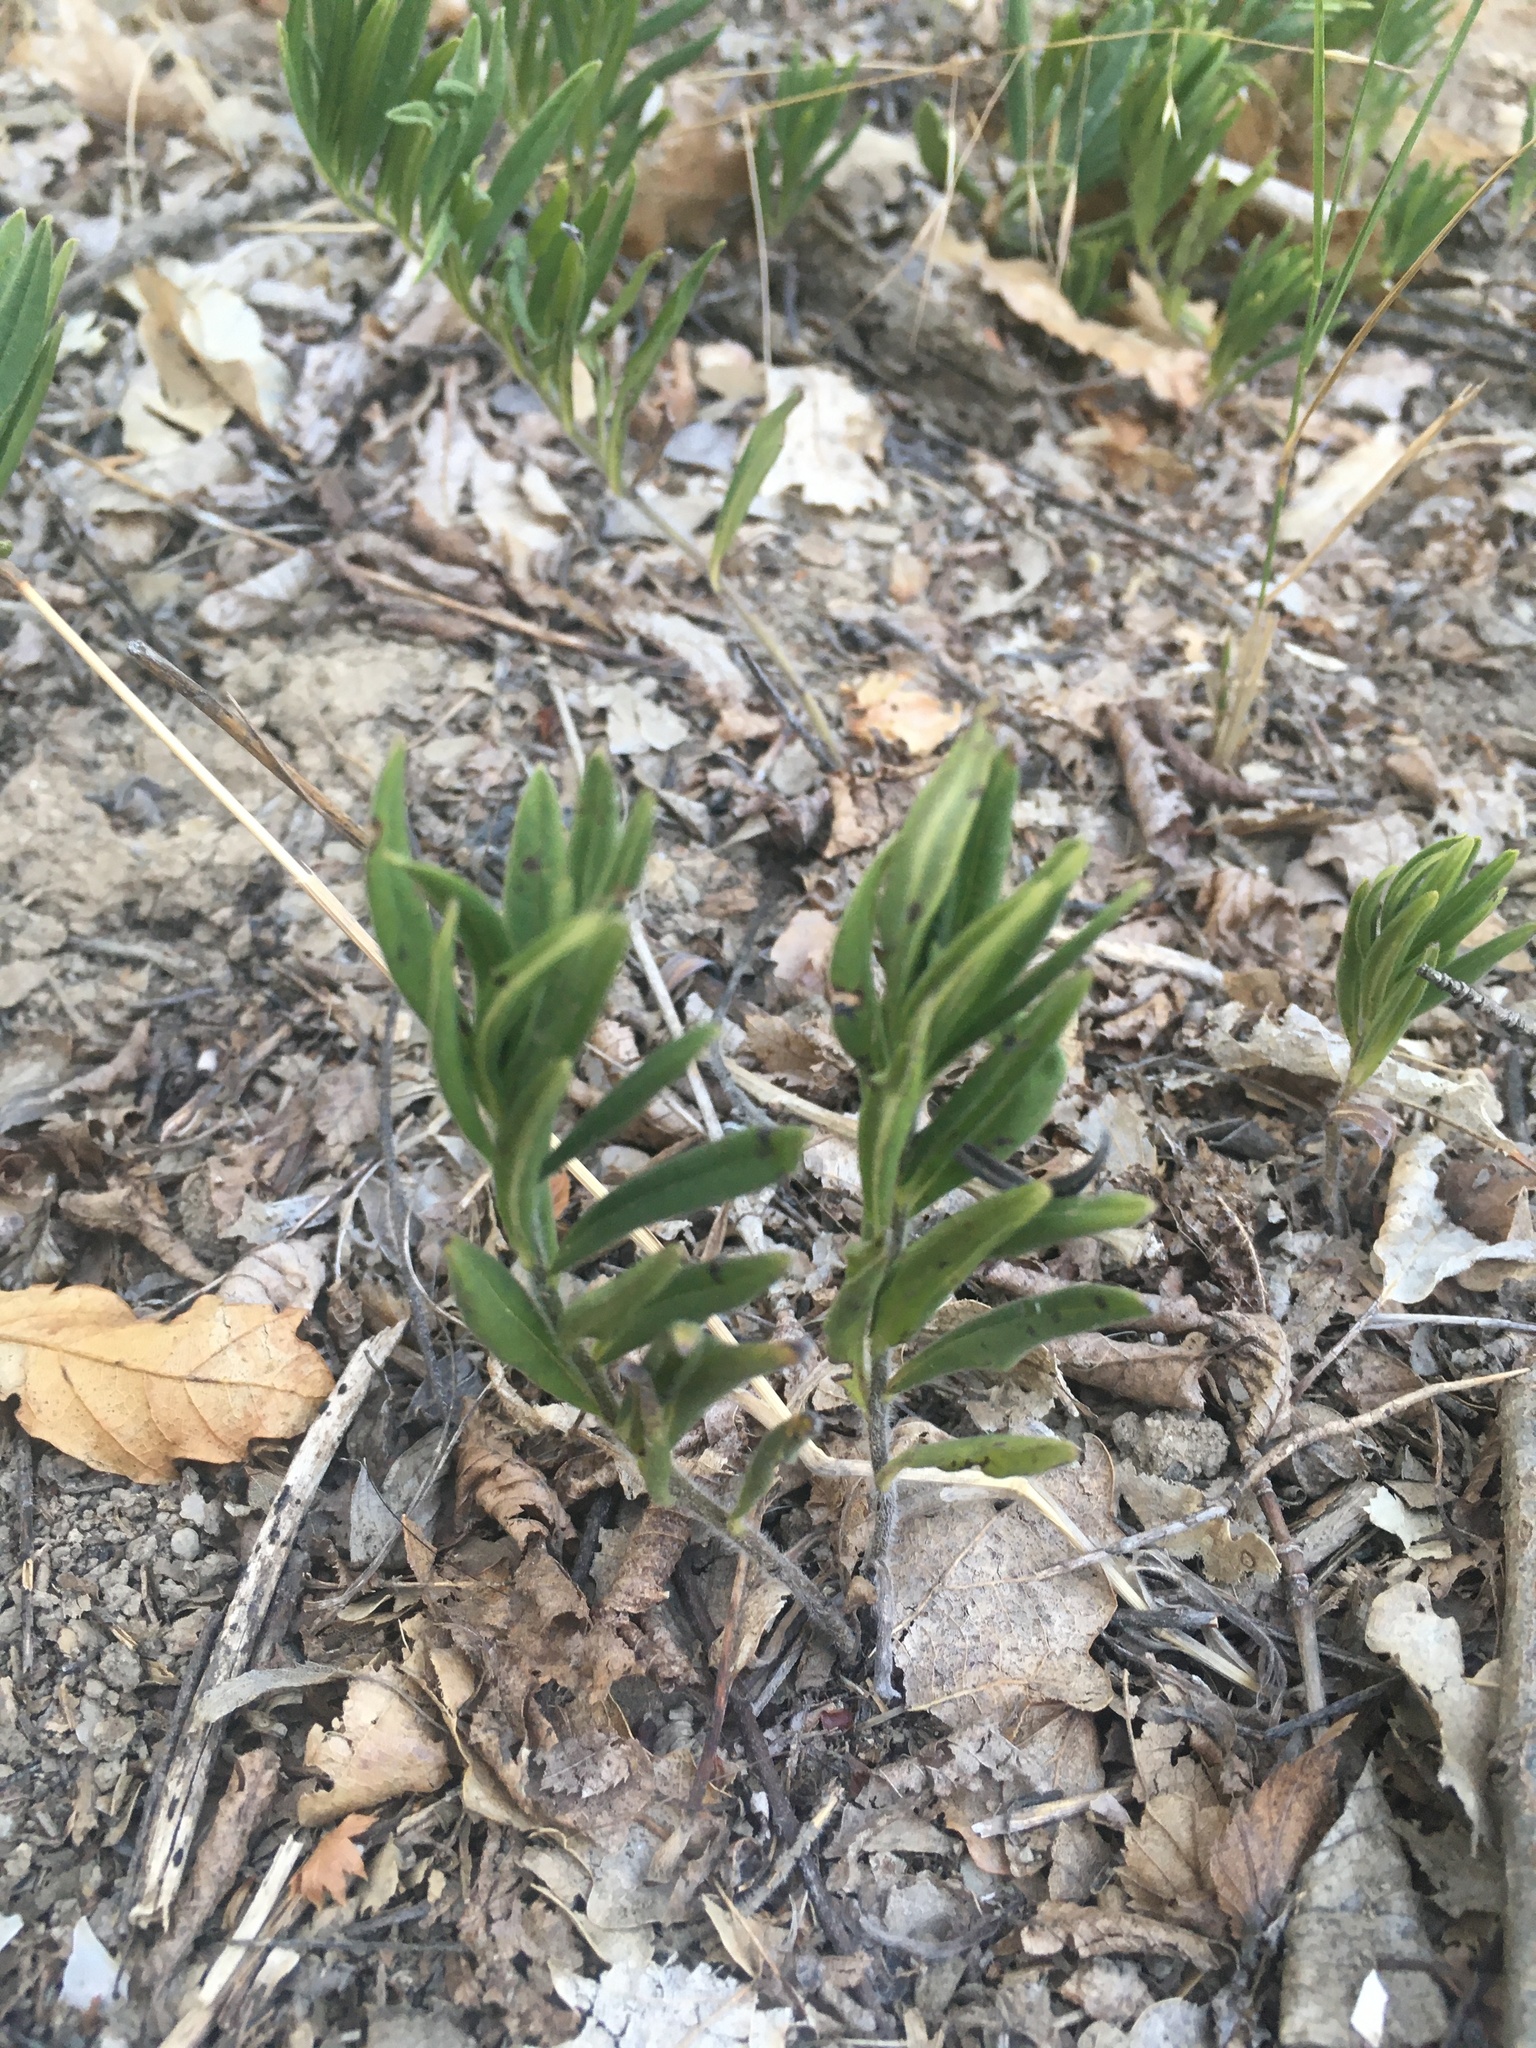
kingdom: Plantae
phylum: Tracheophyta
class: Magnoliopsida
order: Boraginales
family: Boraginaceae
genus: Aegonychon
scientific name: Aegonychon purpurocaeruleum
